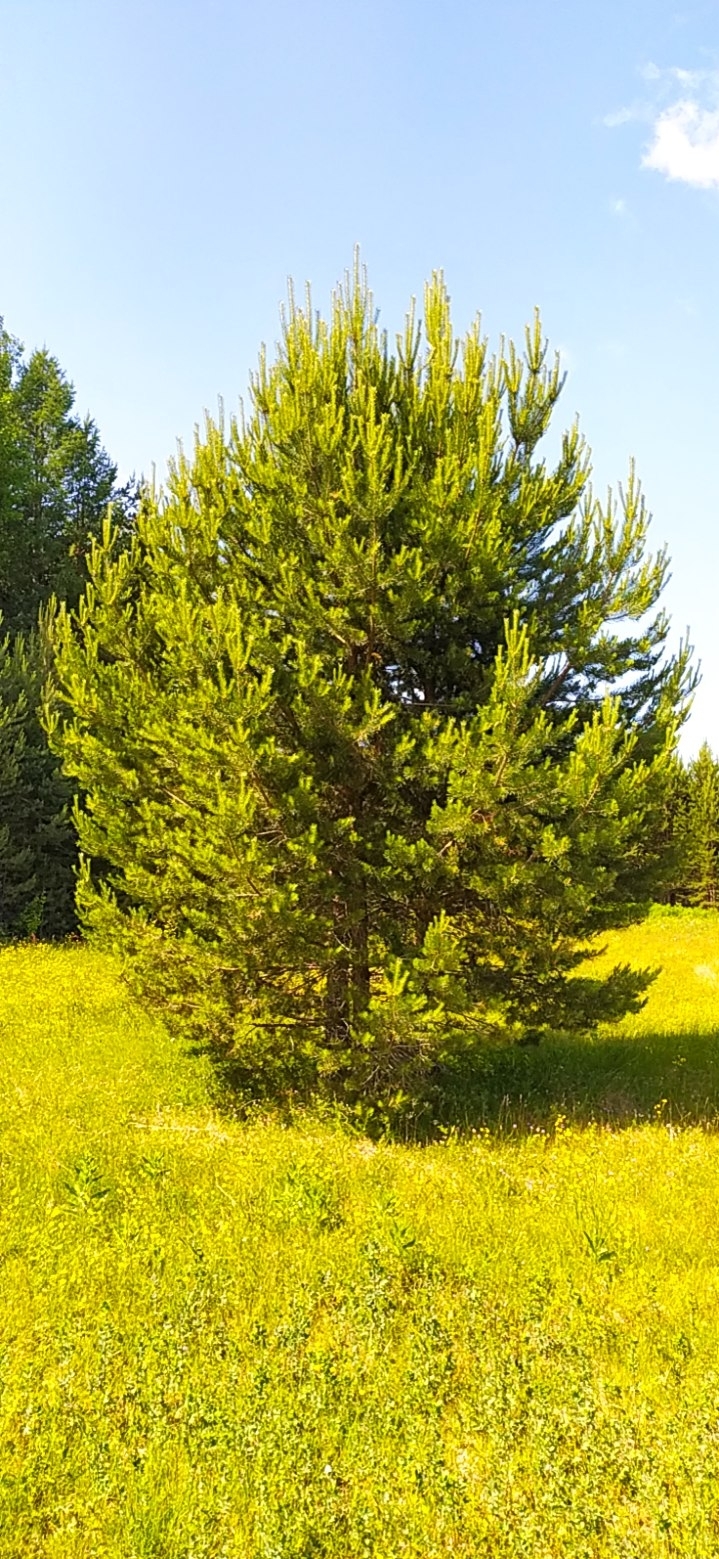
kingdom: Plantae
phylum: Tracheophyta
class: Pinopsida
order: Pinales
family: Pinaceae
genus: Pinus
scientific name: Pinus sylvestris
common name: Scots pine
